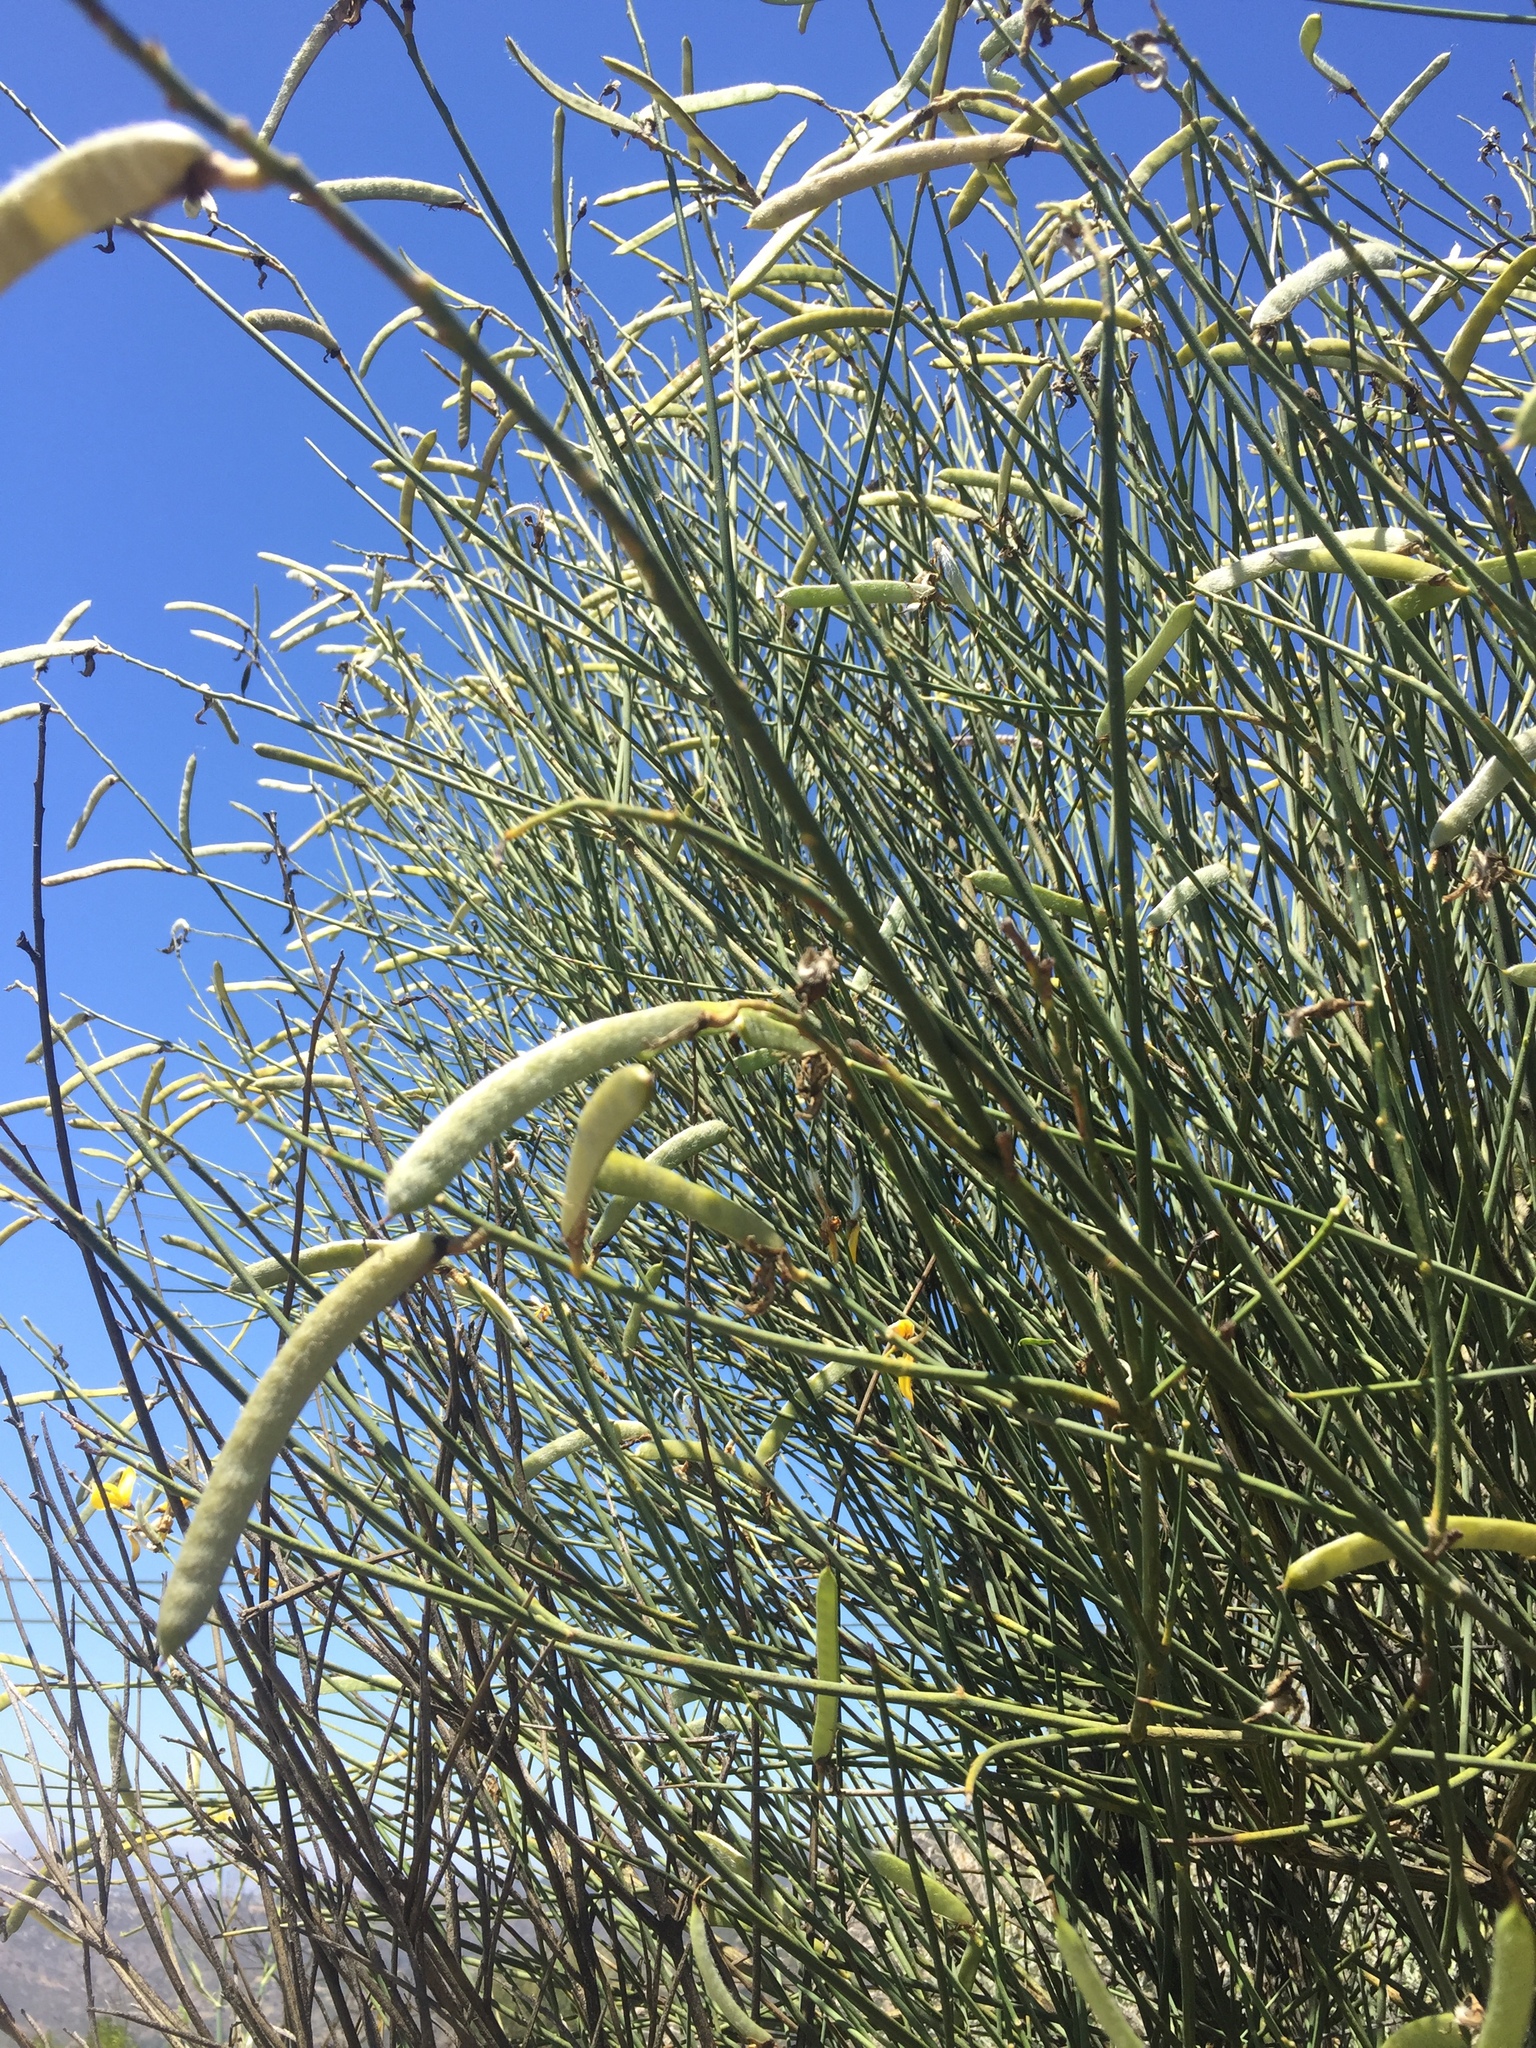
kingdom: Plantae
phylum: Tracheophyta
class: Magnoliopsida
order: Fabales
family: Fabaceae
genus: Spartium
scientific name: Spartium junceum
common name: Spanish broom
